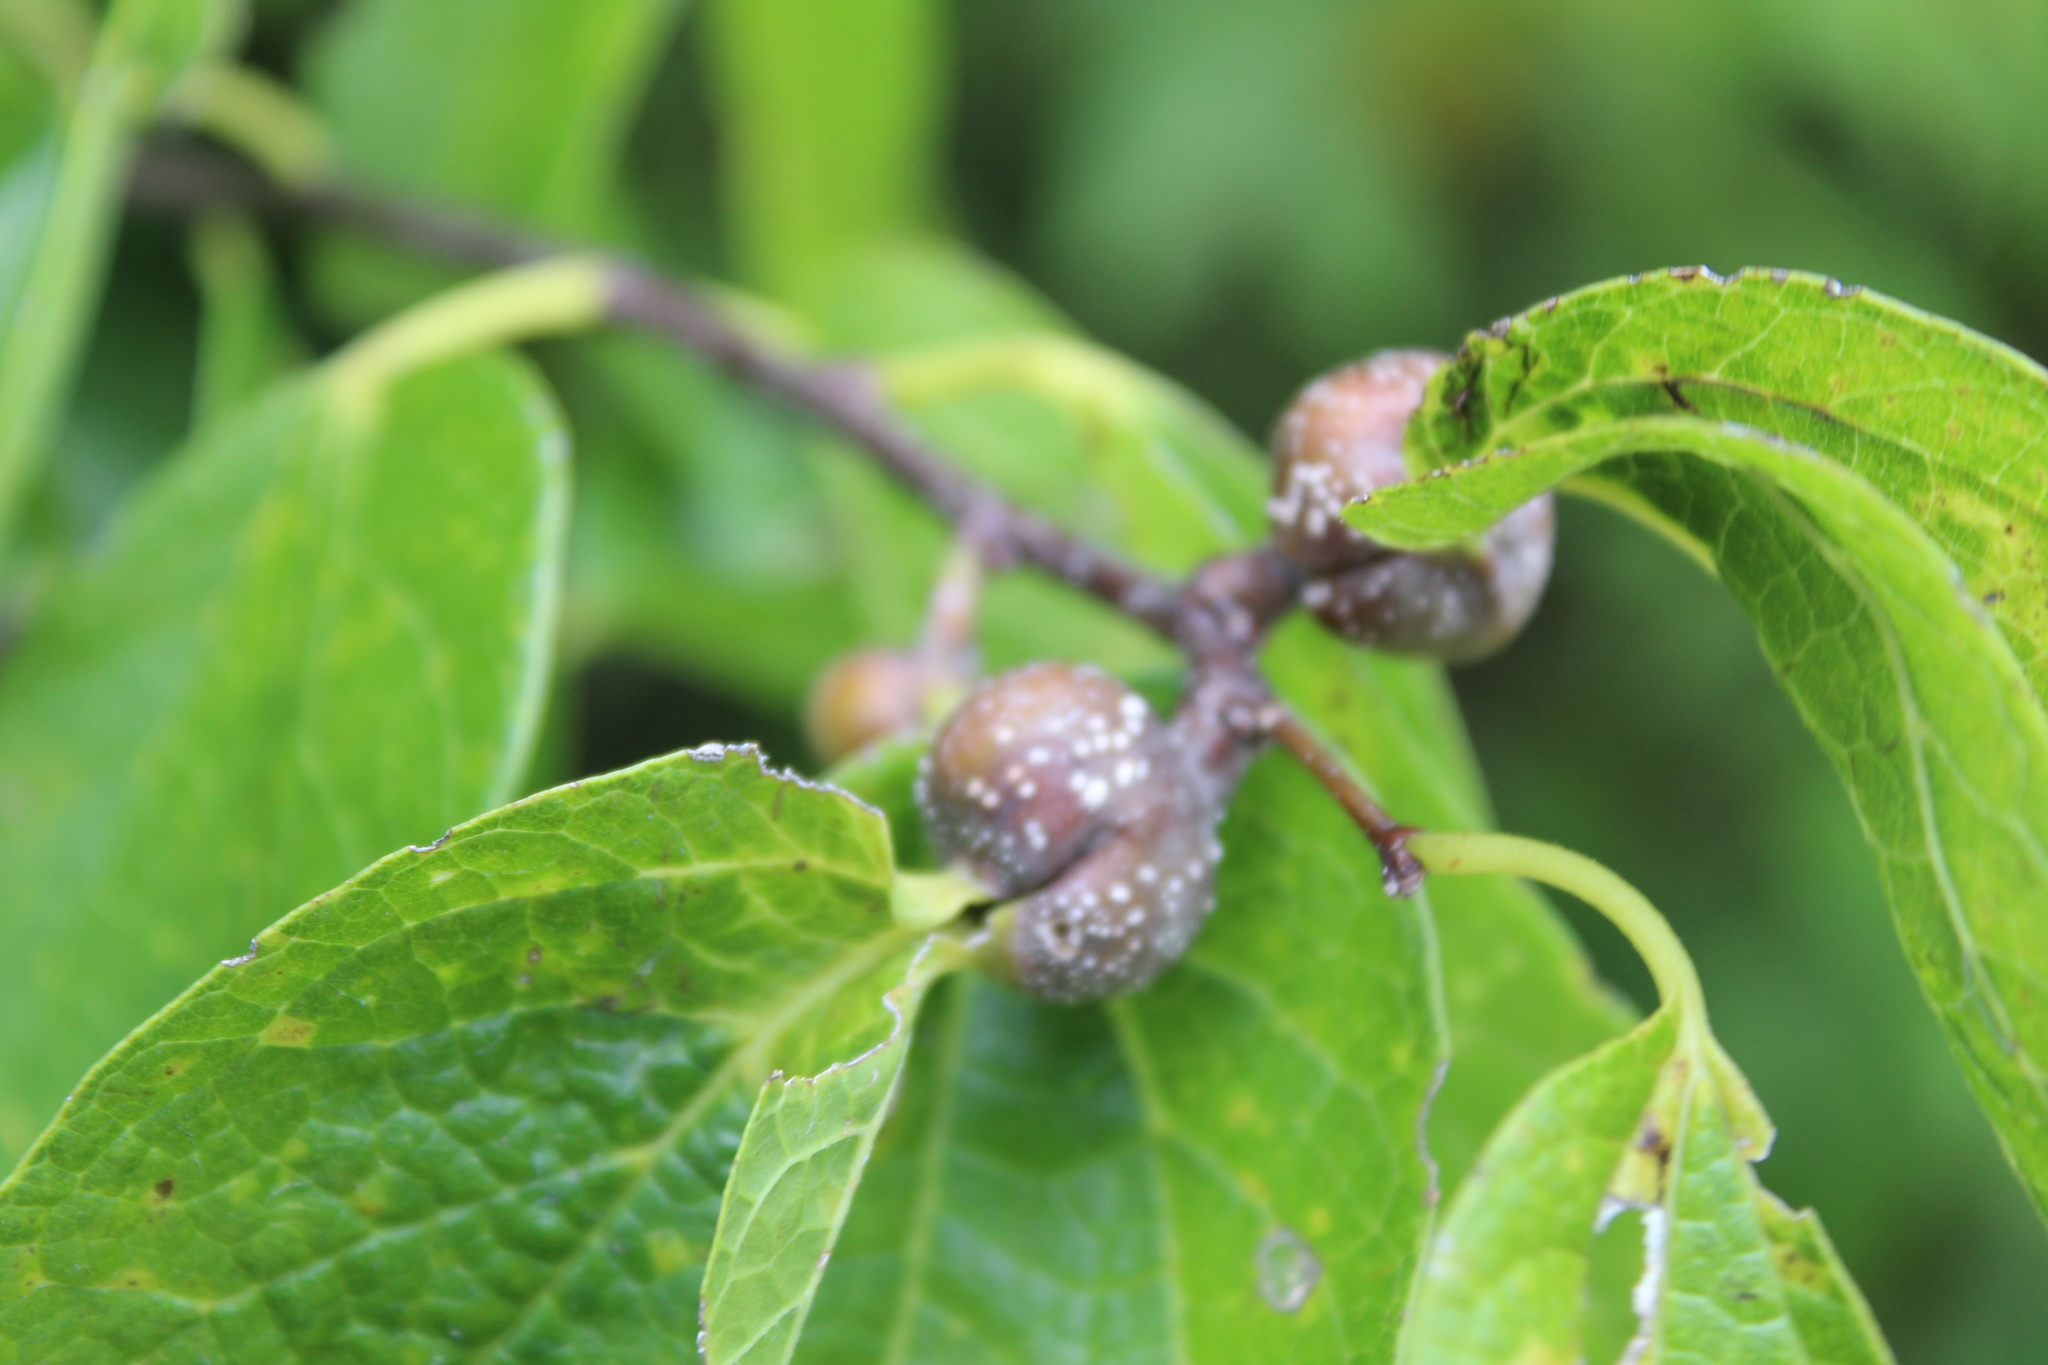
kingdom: Animalia
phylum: Arthropoda
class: Insecta
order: Hemiptera
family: Aphalaridae
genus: Pachypsylla
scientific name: Pachypsylla venusta
